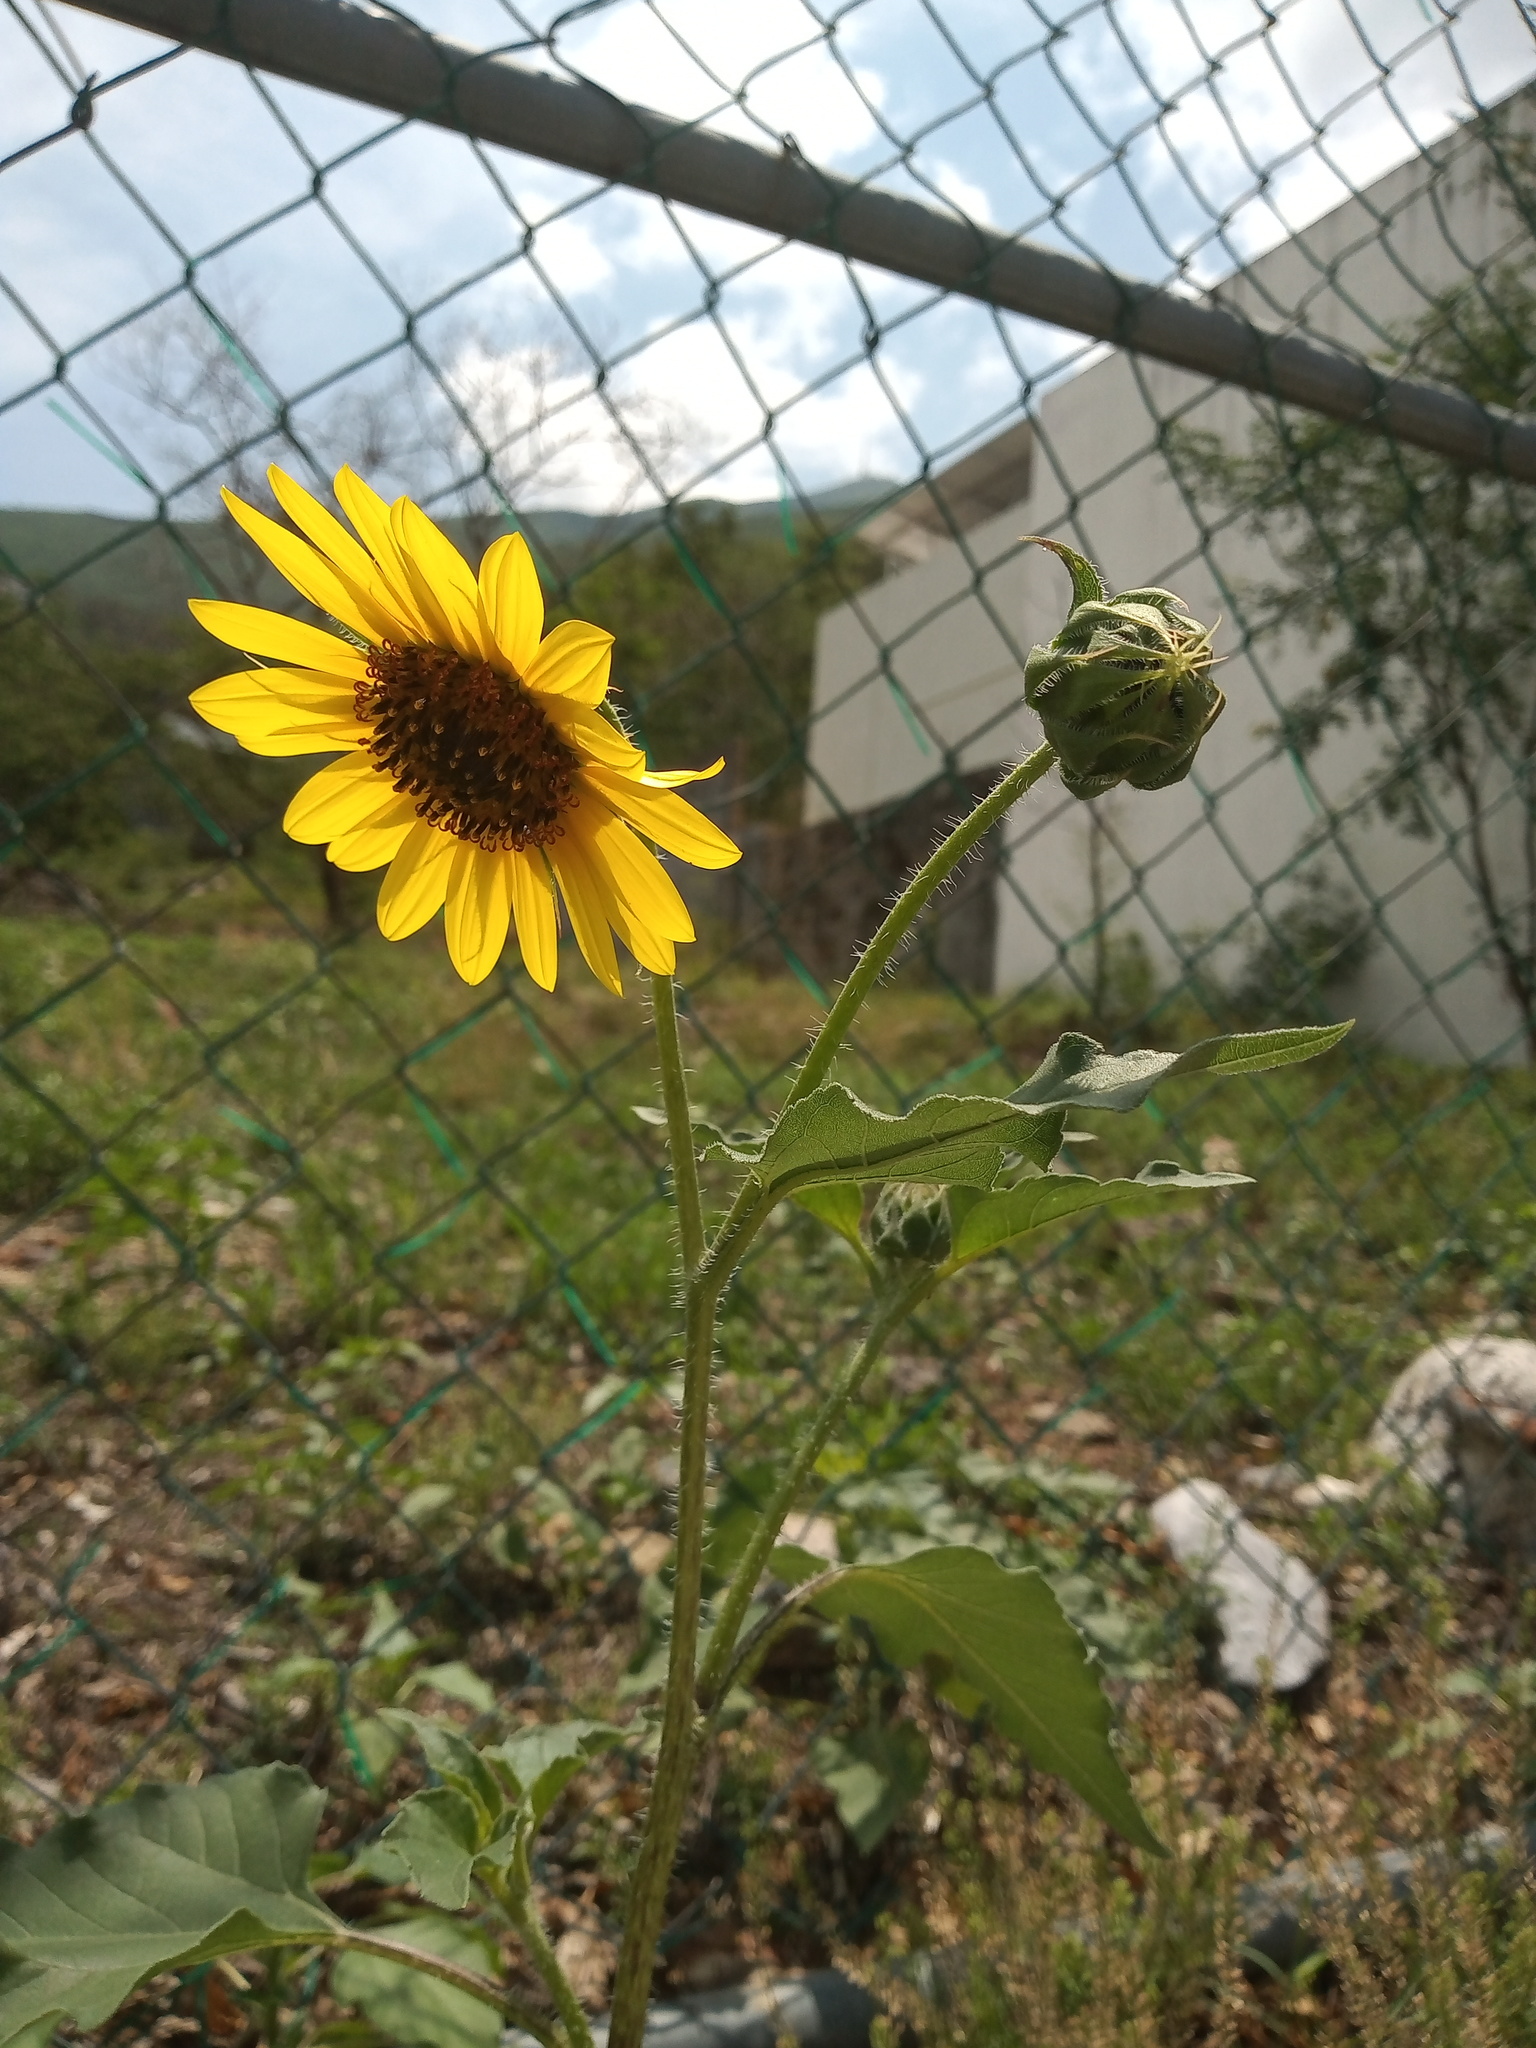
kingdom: Plantae
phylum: Tracheophyta
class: Magnoliopsida
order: Asterales
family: Asteraceae
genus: Helianthus
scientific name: Helianthus annuus
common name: Sunflower
